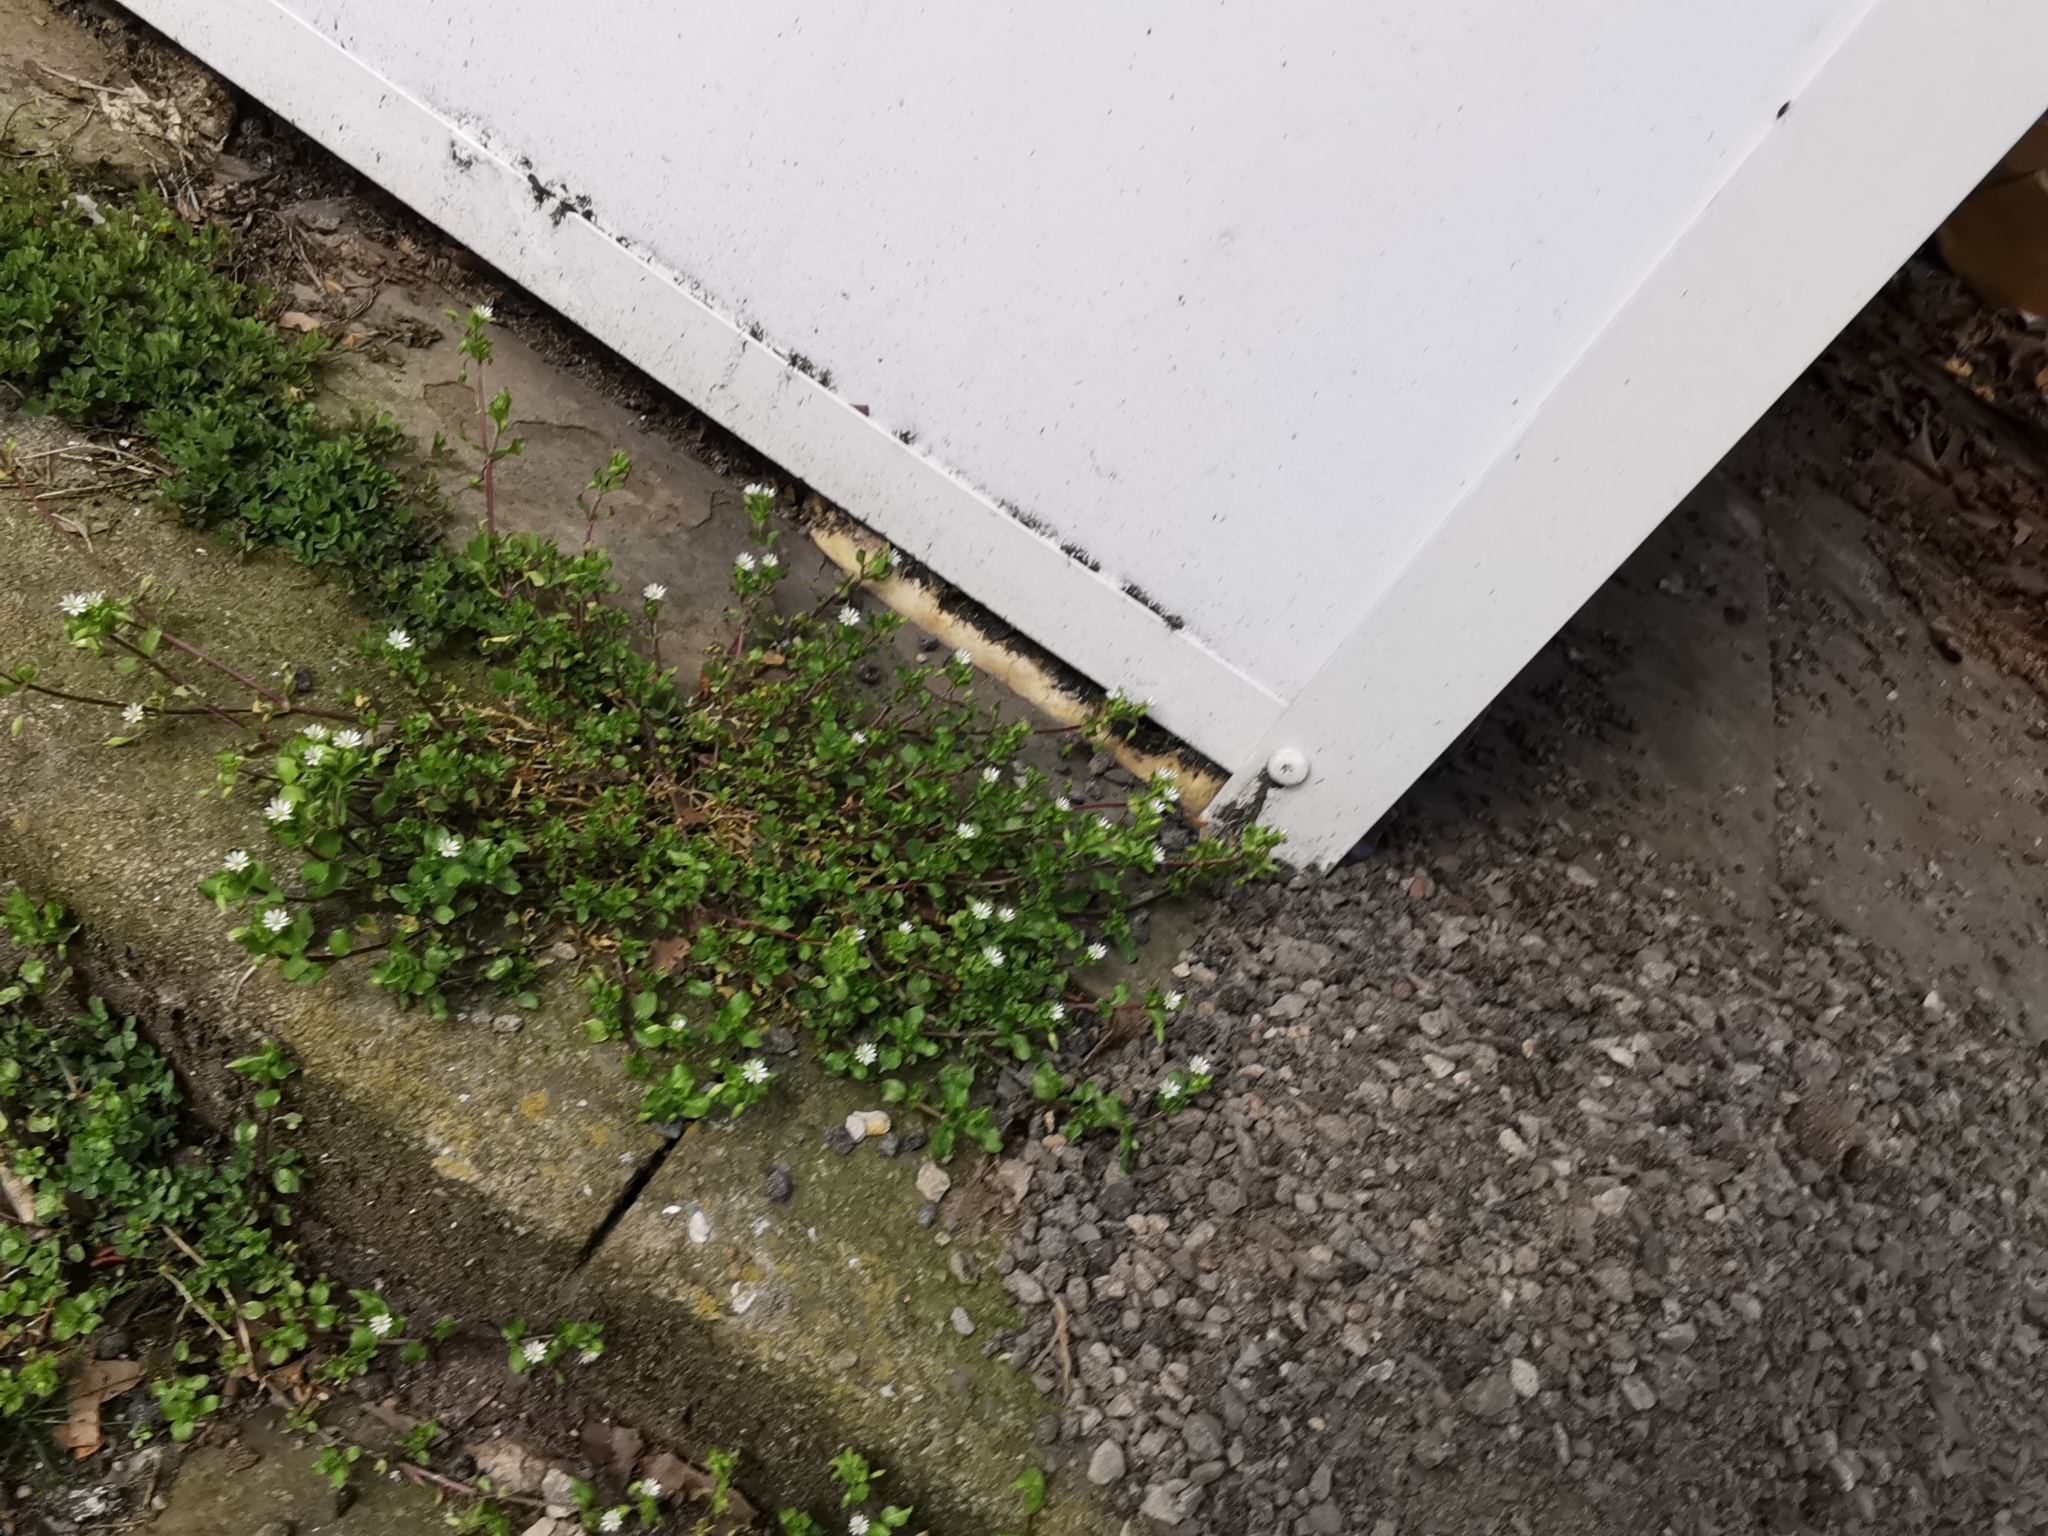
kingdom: Plantae
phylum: Tracheophyta
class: Magnoliopsida
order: Caryophyllales
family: Caryophyllaceae
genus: Stellaria
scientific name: Stellaria media
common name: Common chickweed
